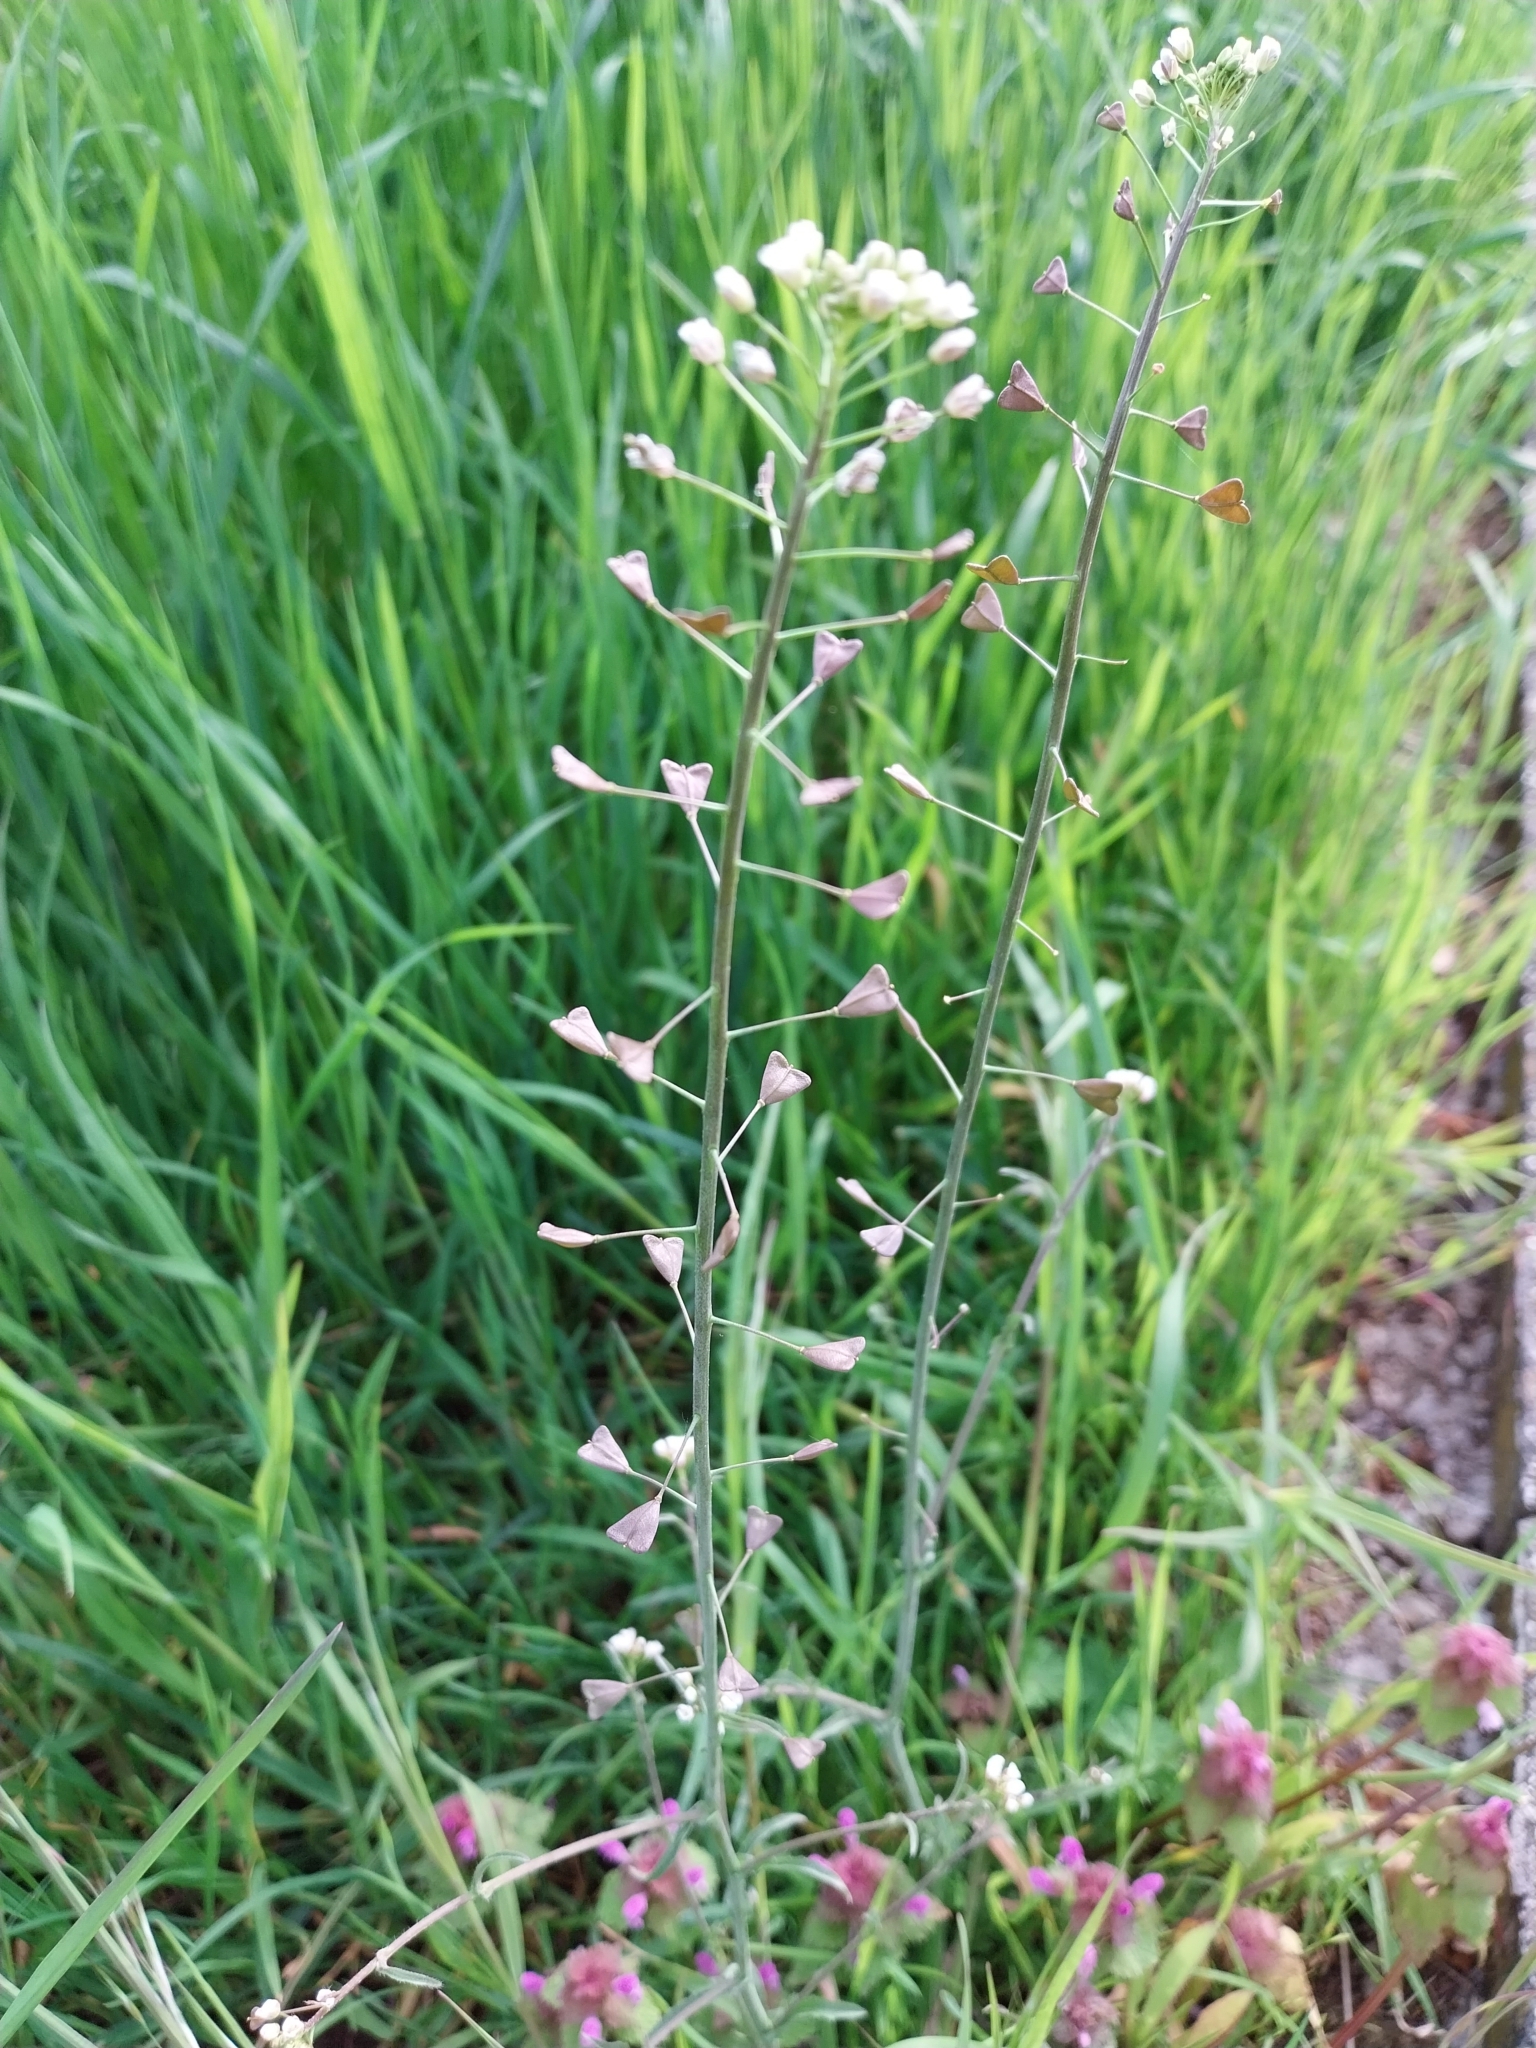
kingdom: Plantae
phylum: Tracheophyta
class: Magnoliopsida
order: Brassicales
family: Brassicaceae
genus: Capsella
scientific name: Capsella bursa-pastoris
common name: Shepherd's purse
